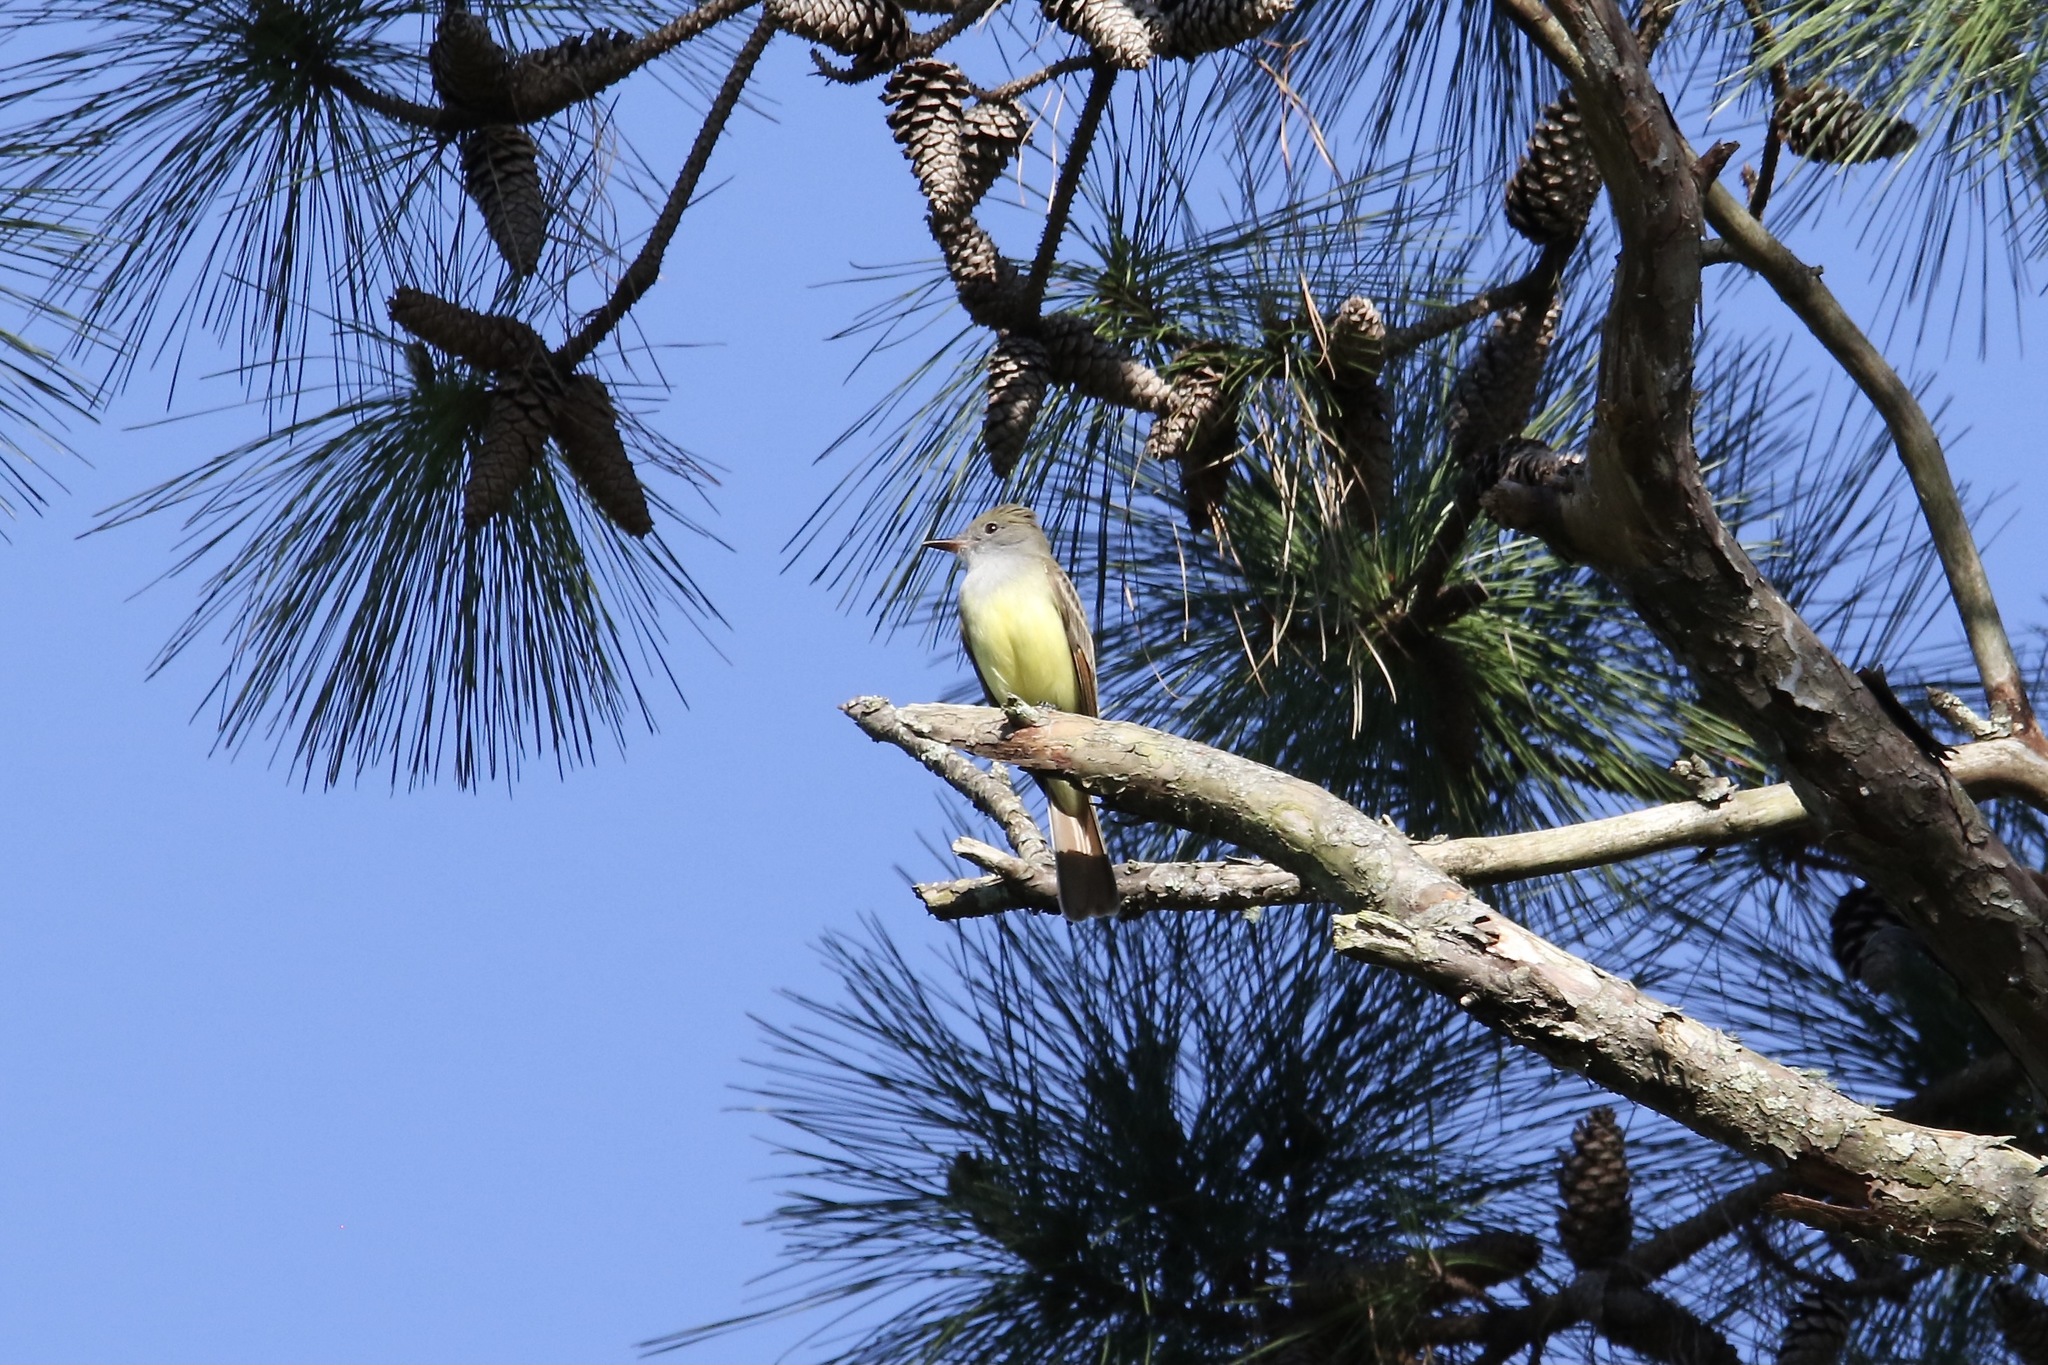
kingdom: Animalia
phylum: Chordata
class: Aves
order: Passeriformes
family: Tyrannidae
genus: Myiarchus
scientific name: Myiarchus crinitus
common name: Great crested flycatcher
